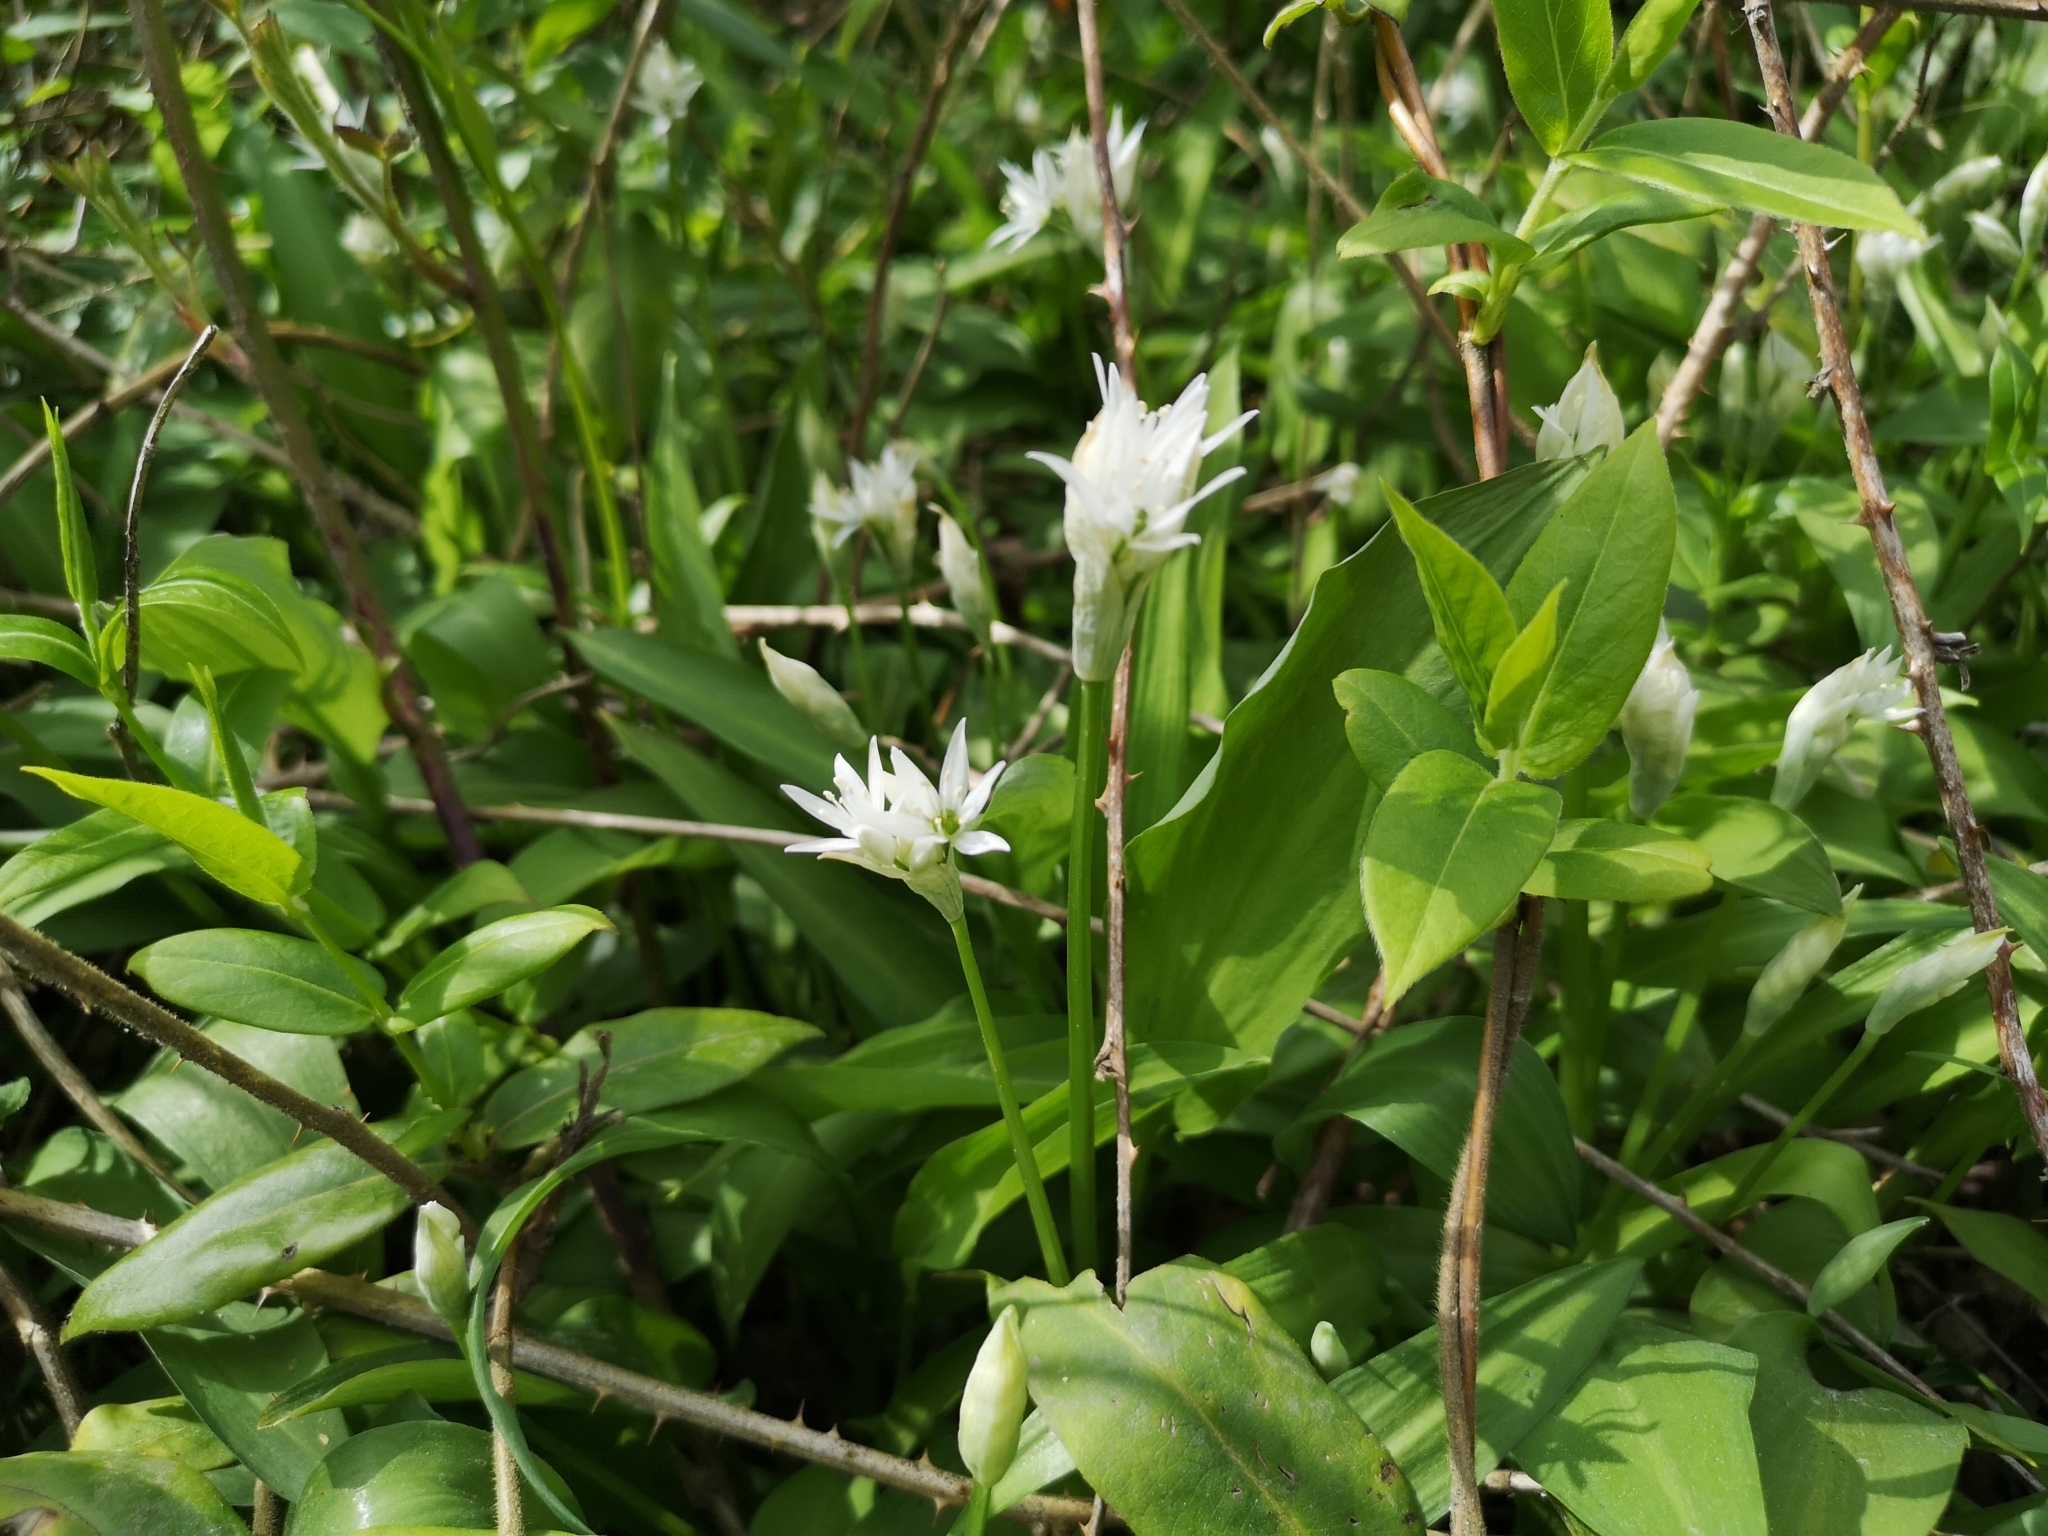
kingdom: Plantae
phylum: Tracheophyta
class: Liliopsida
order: Asparagales
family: Amaryllidaceae
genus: Allium
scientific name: Allium ursinum
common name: Ramsons
